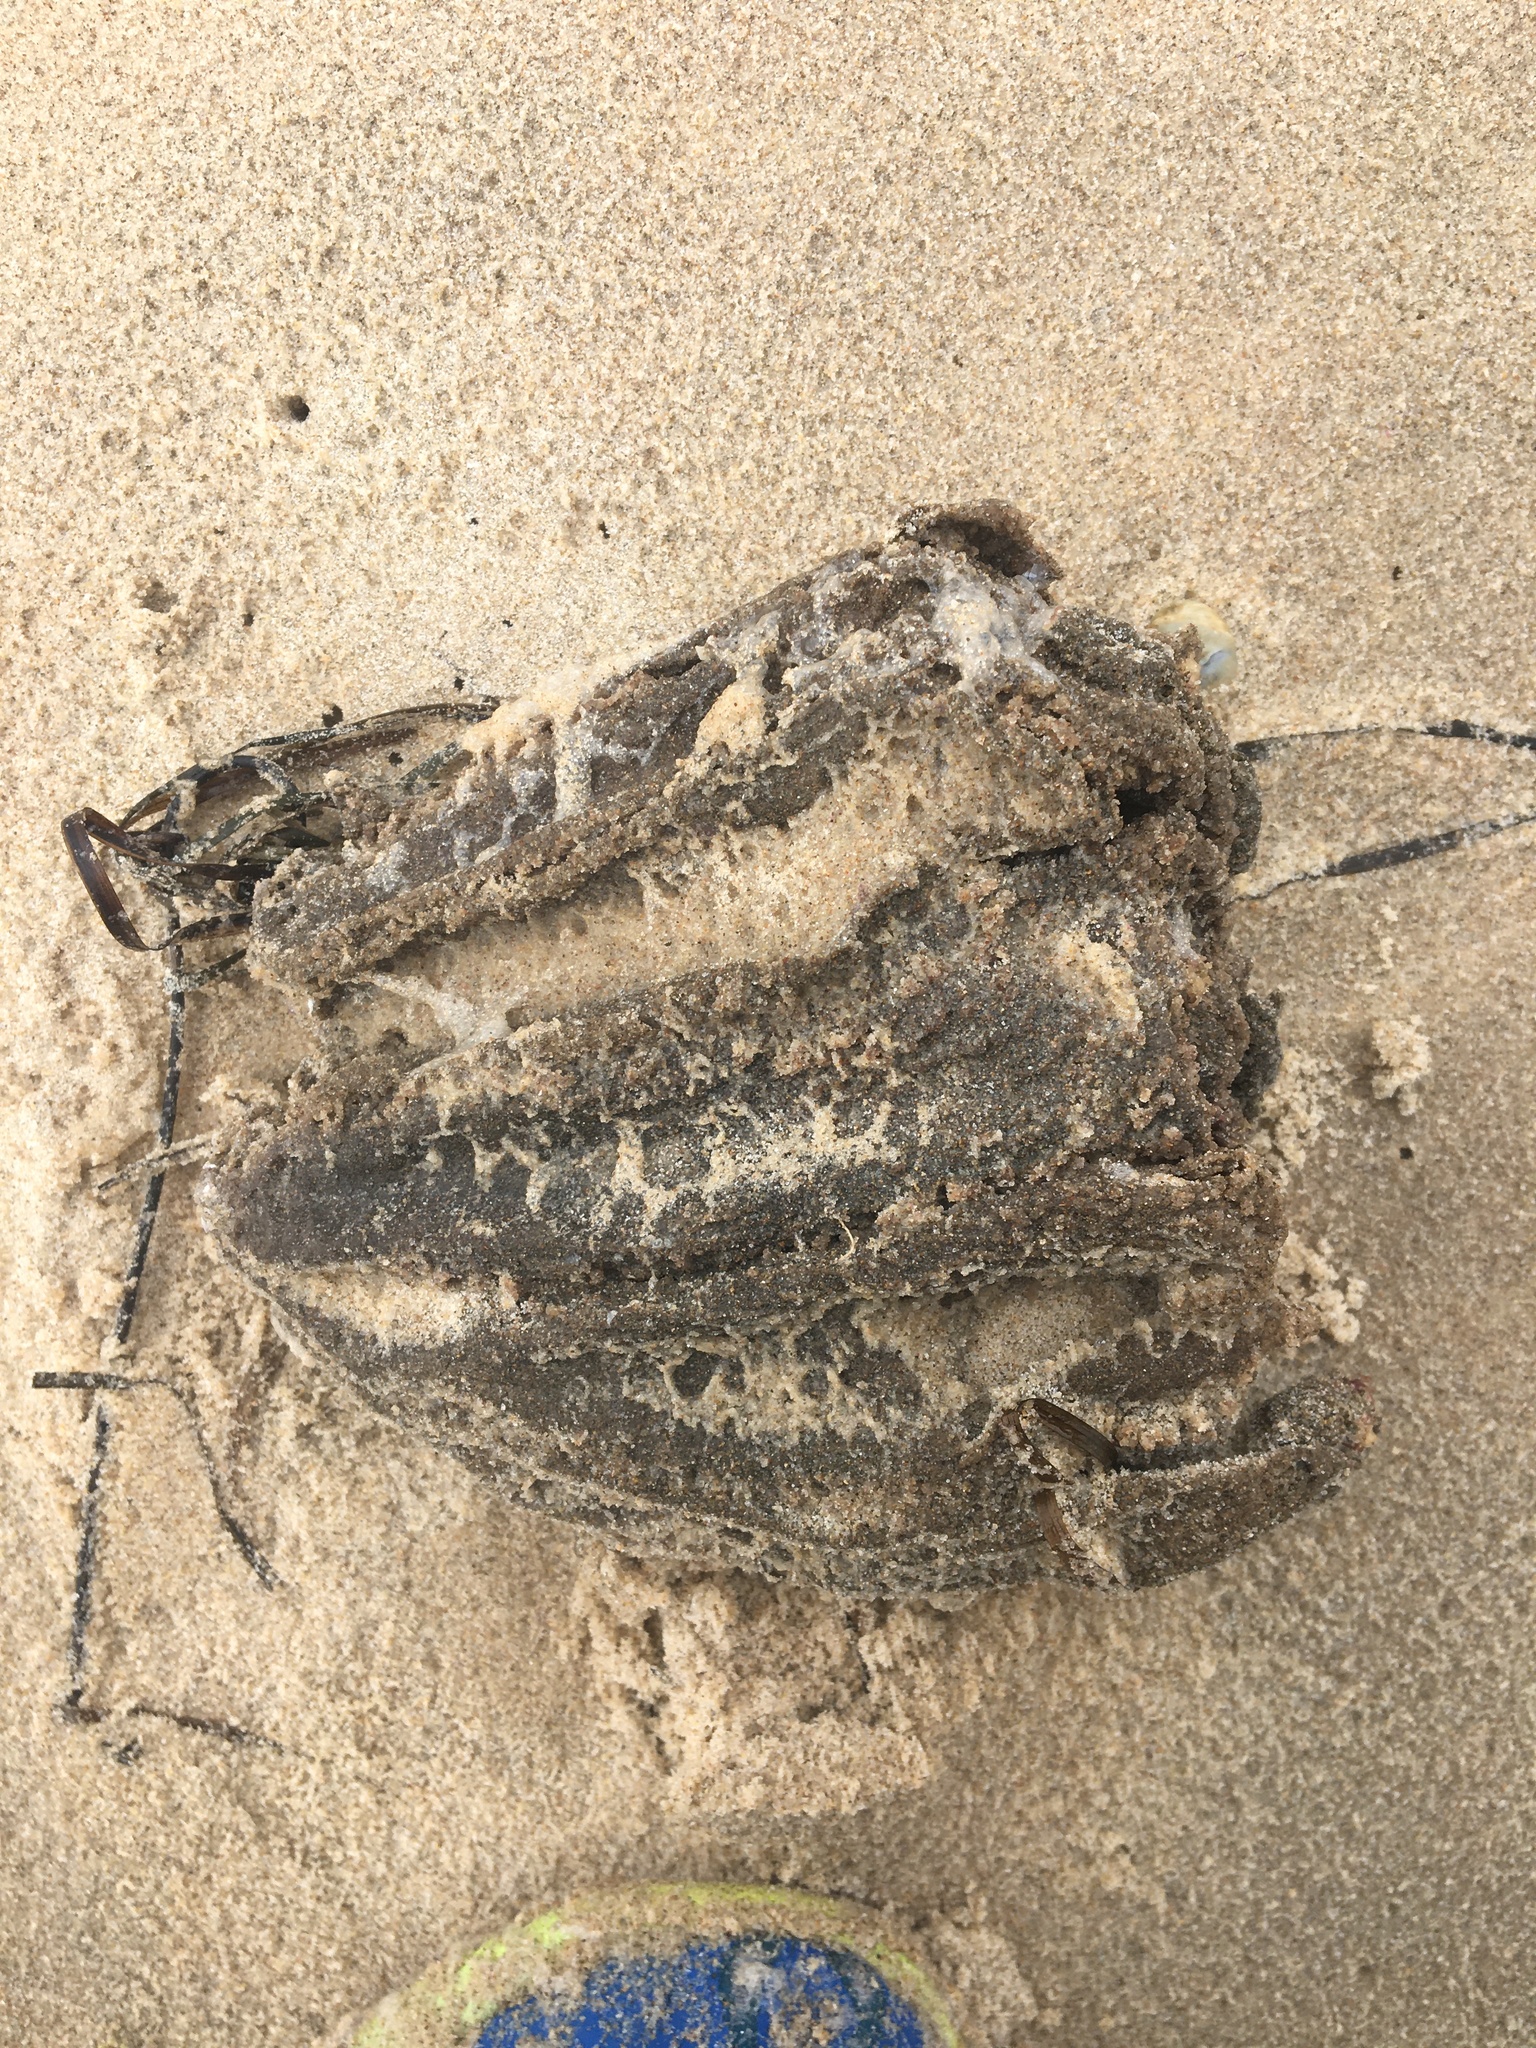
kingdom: Animalia
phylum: Chordata
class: Ascidiacea
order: Stolidobranchia
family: Pyuridae
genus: Pyura
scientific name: Pyura praeputialis
